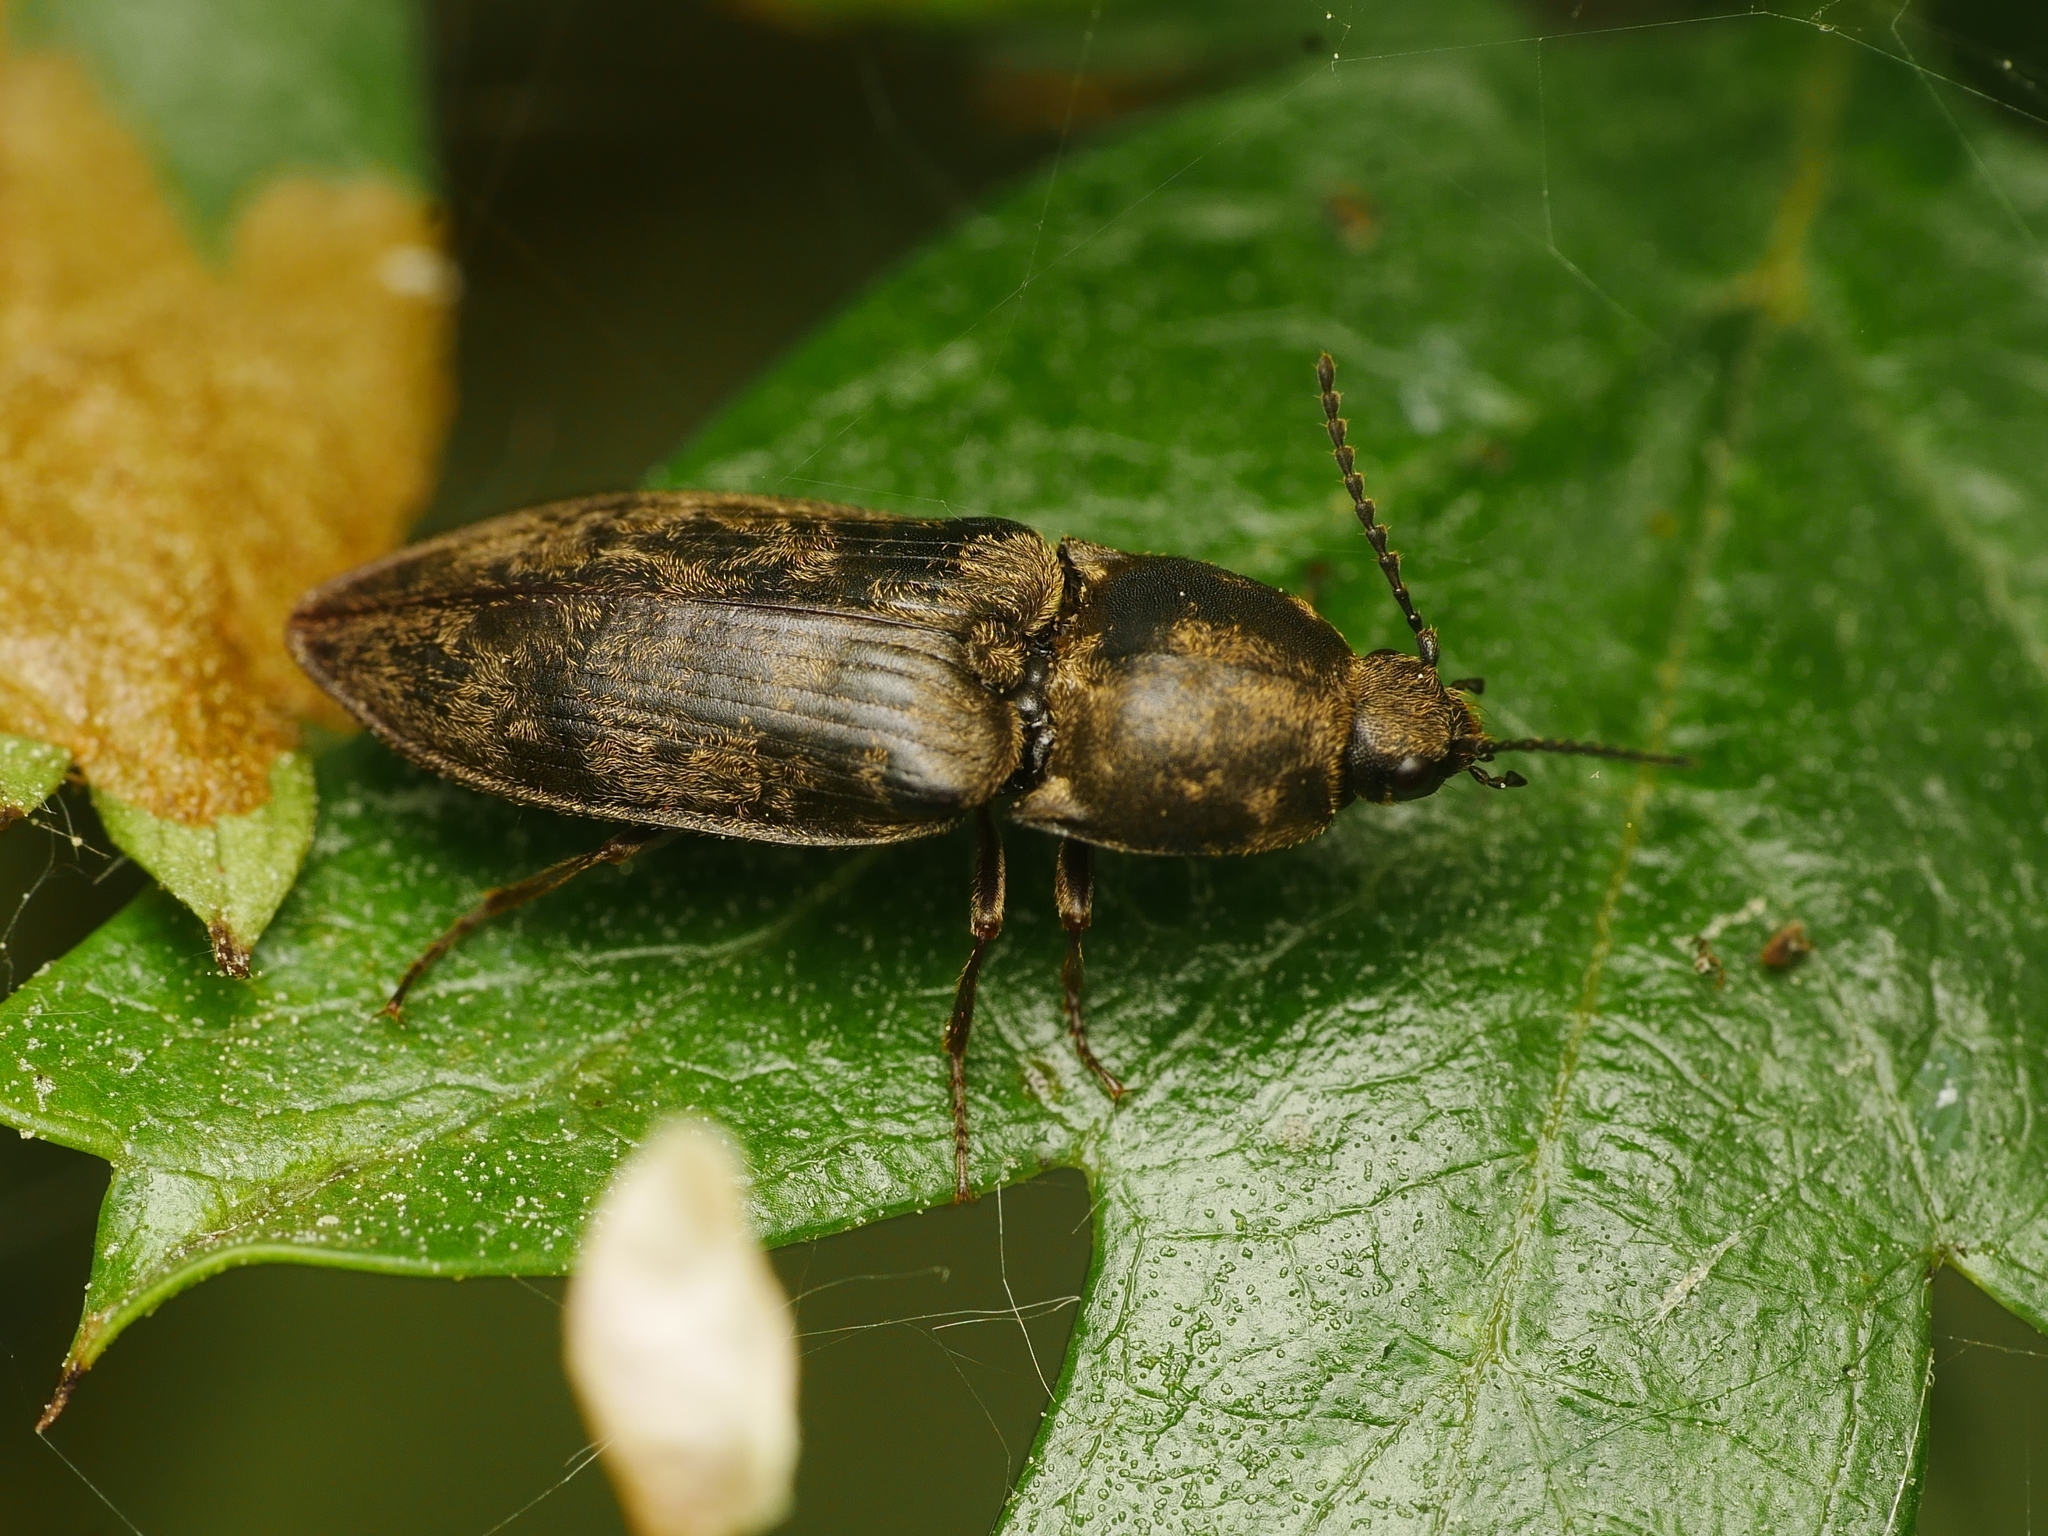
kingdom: Animalia
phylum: Arthropoda
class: Insecta
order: Coleoptera
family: Elateridae
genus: Prosternon
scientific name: Prosternon tessellatum
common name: Chequered click beetle
